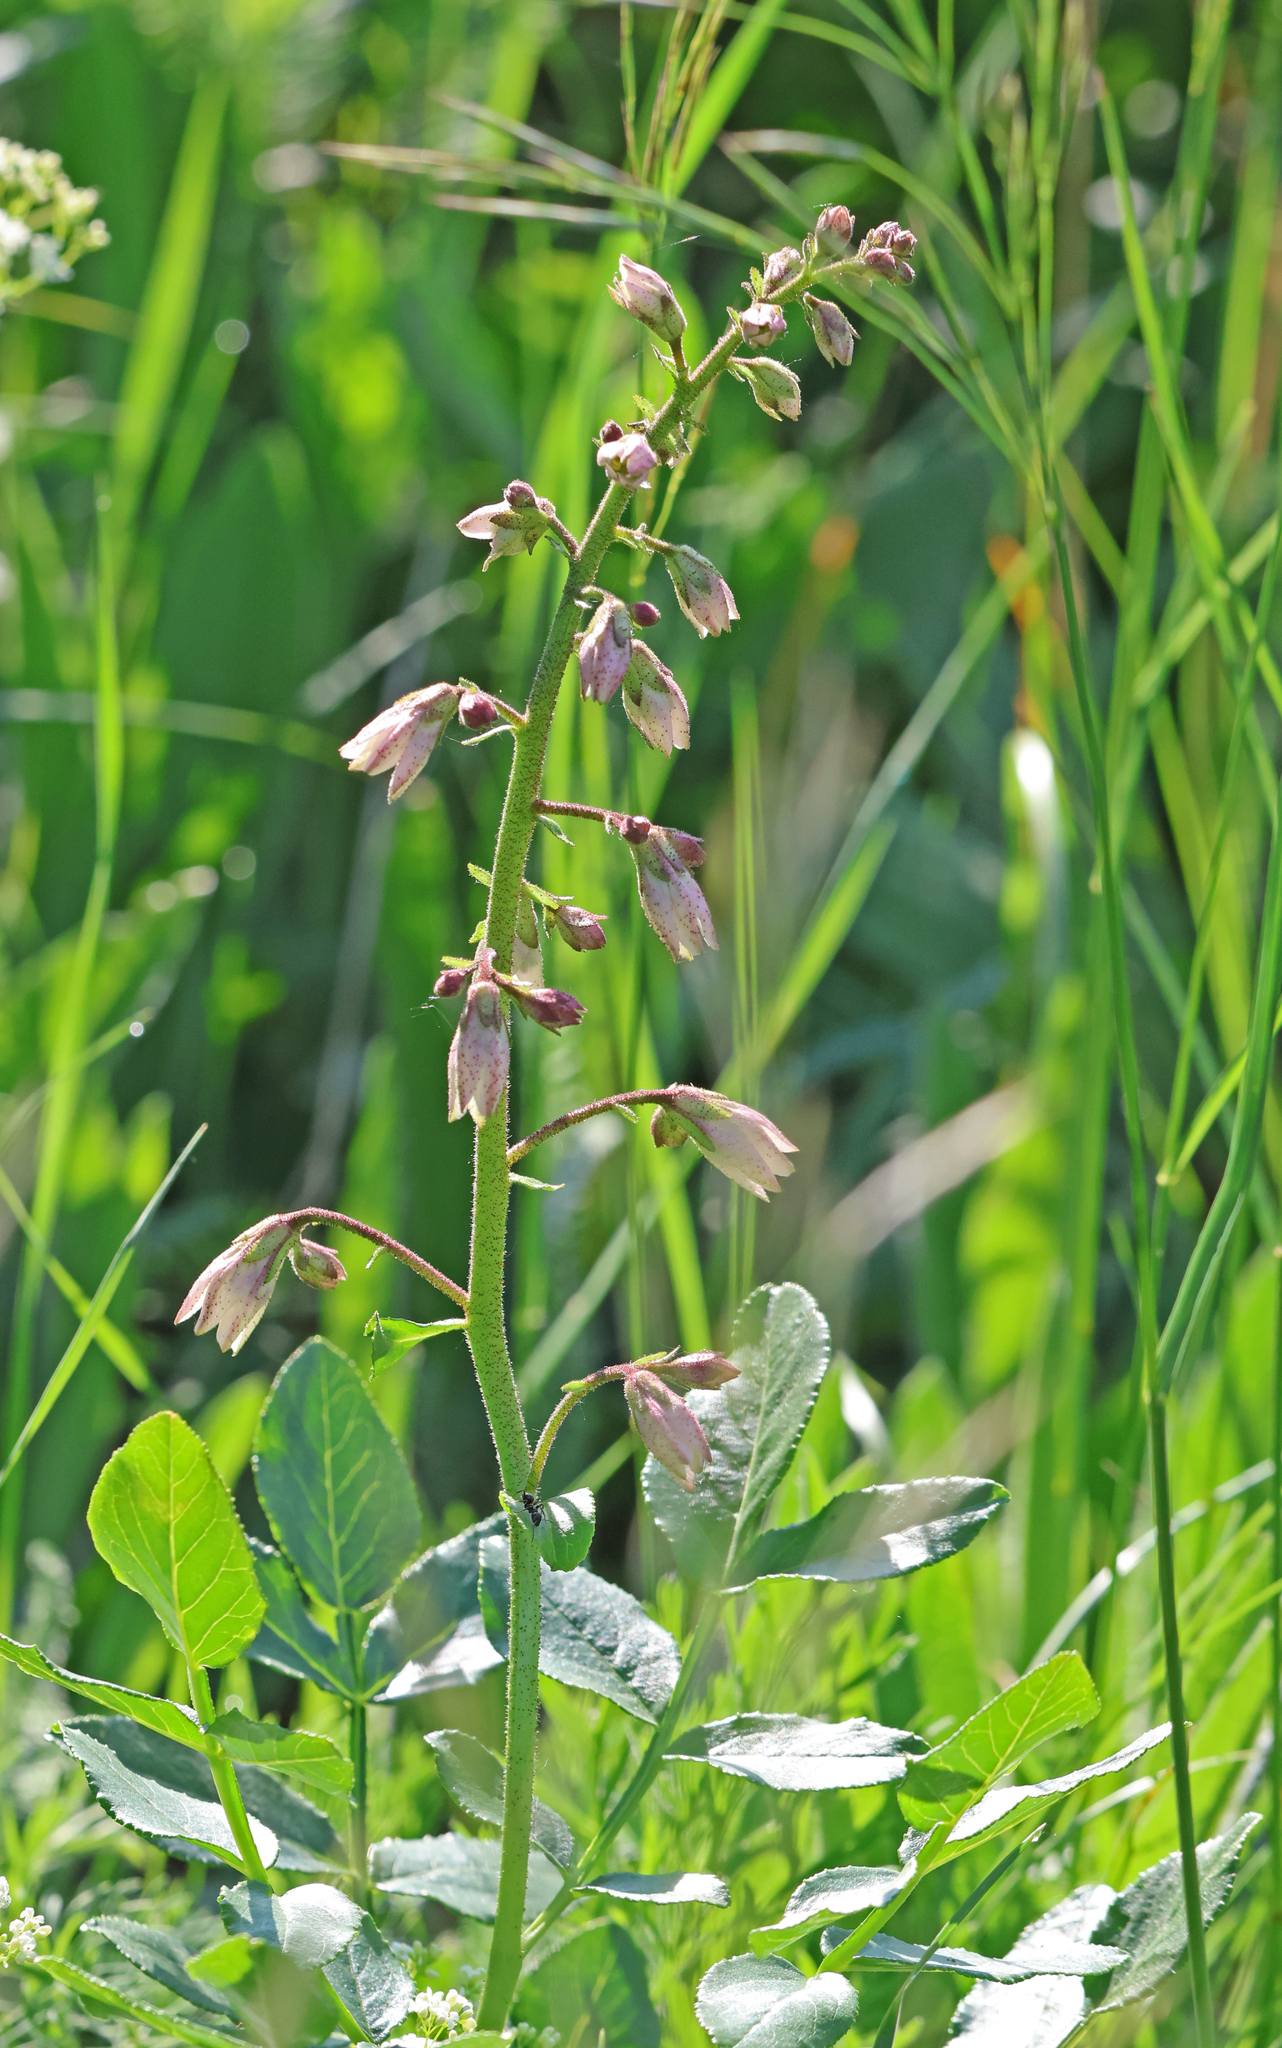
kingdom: Plantae
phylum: Tracheophyta
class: Magnoliopsida
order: Sapindales
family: Rutaceae
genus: Dictamnus
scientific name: Dictamnus albus
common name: Gasplant
